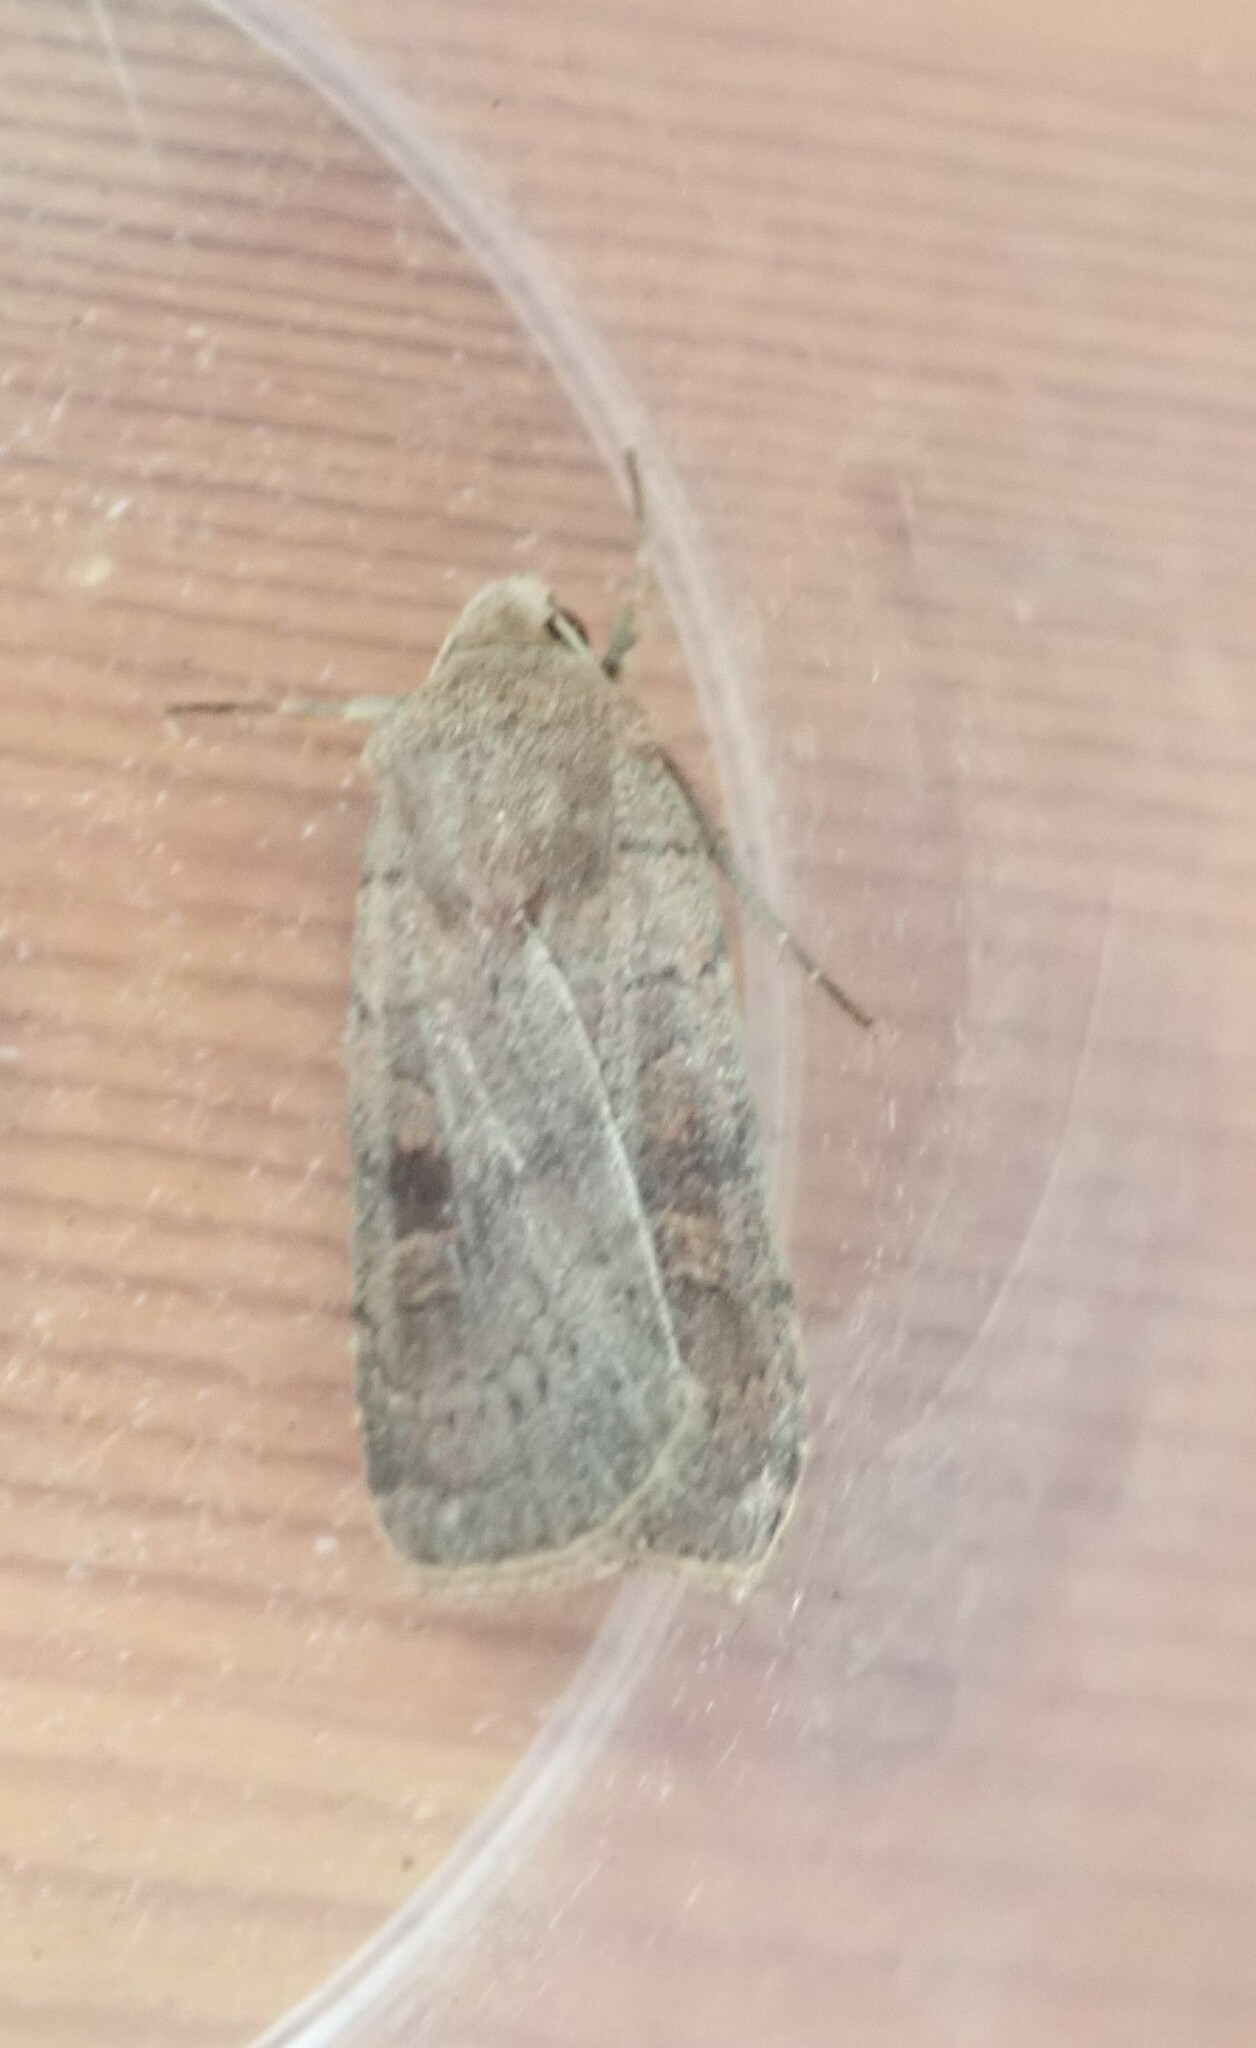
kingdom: Animalia
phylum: Arthropoda
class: Insecta
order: Lepidoptera
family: Noctuidae
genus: Xestia
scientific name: Xestia xanthographa
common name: Square-spot rustic
